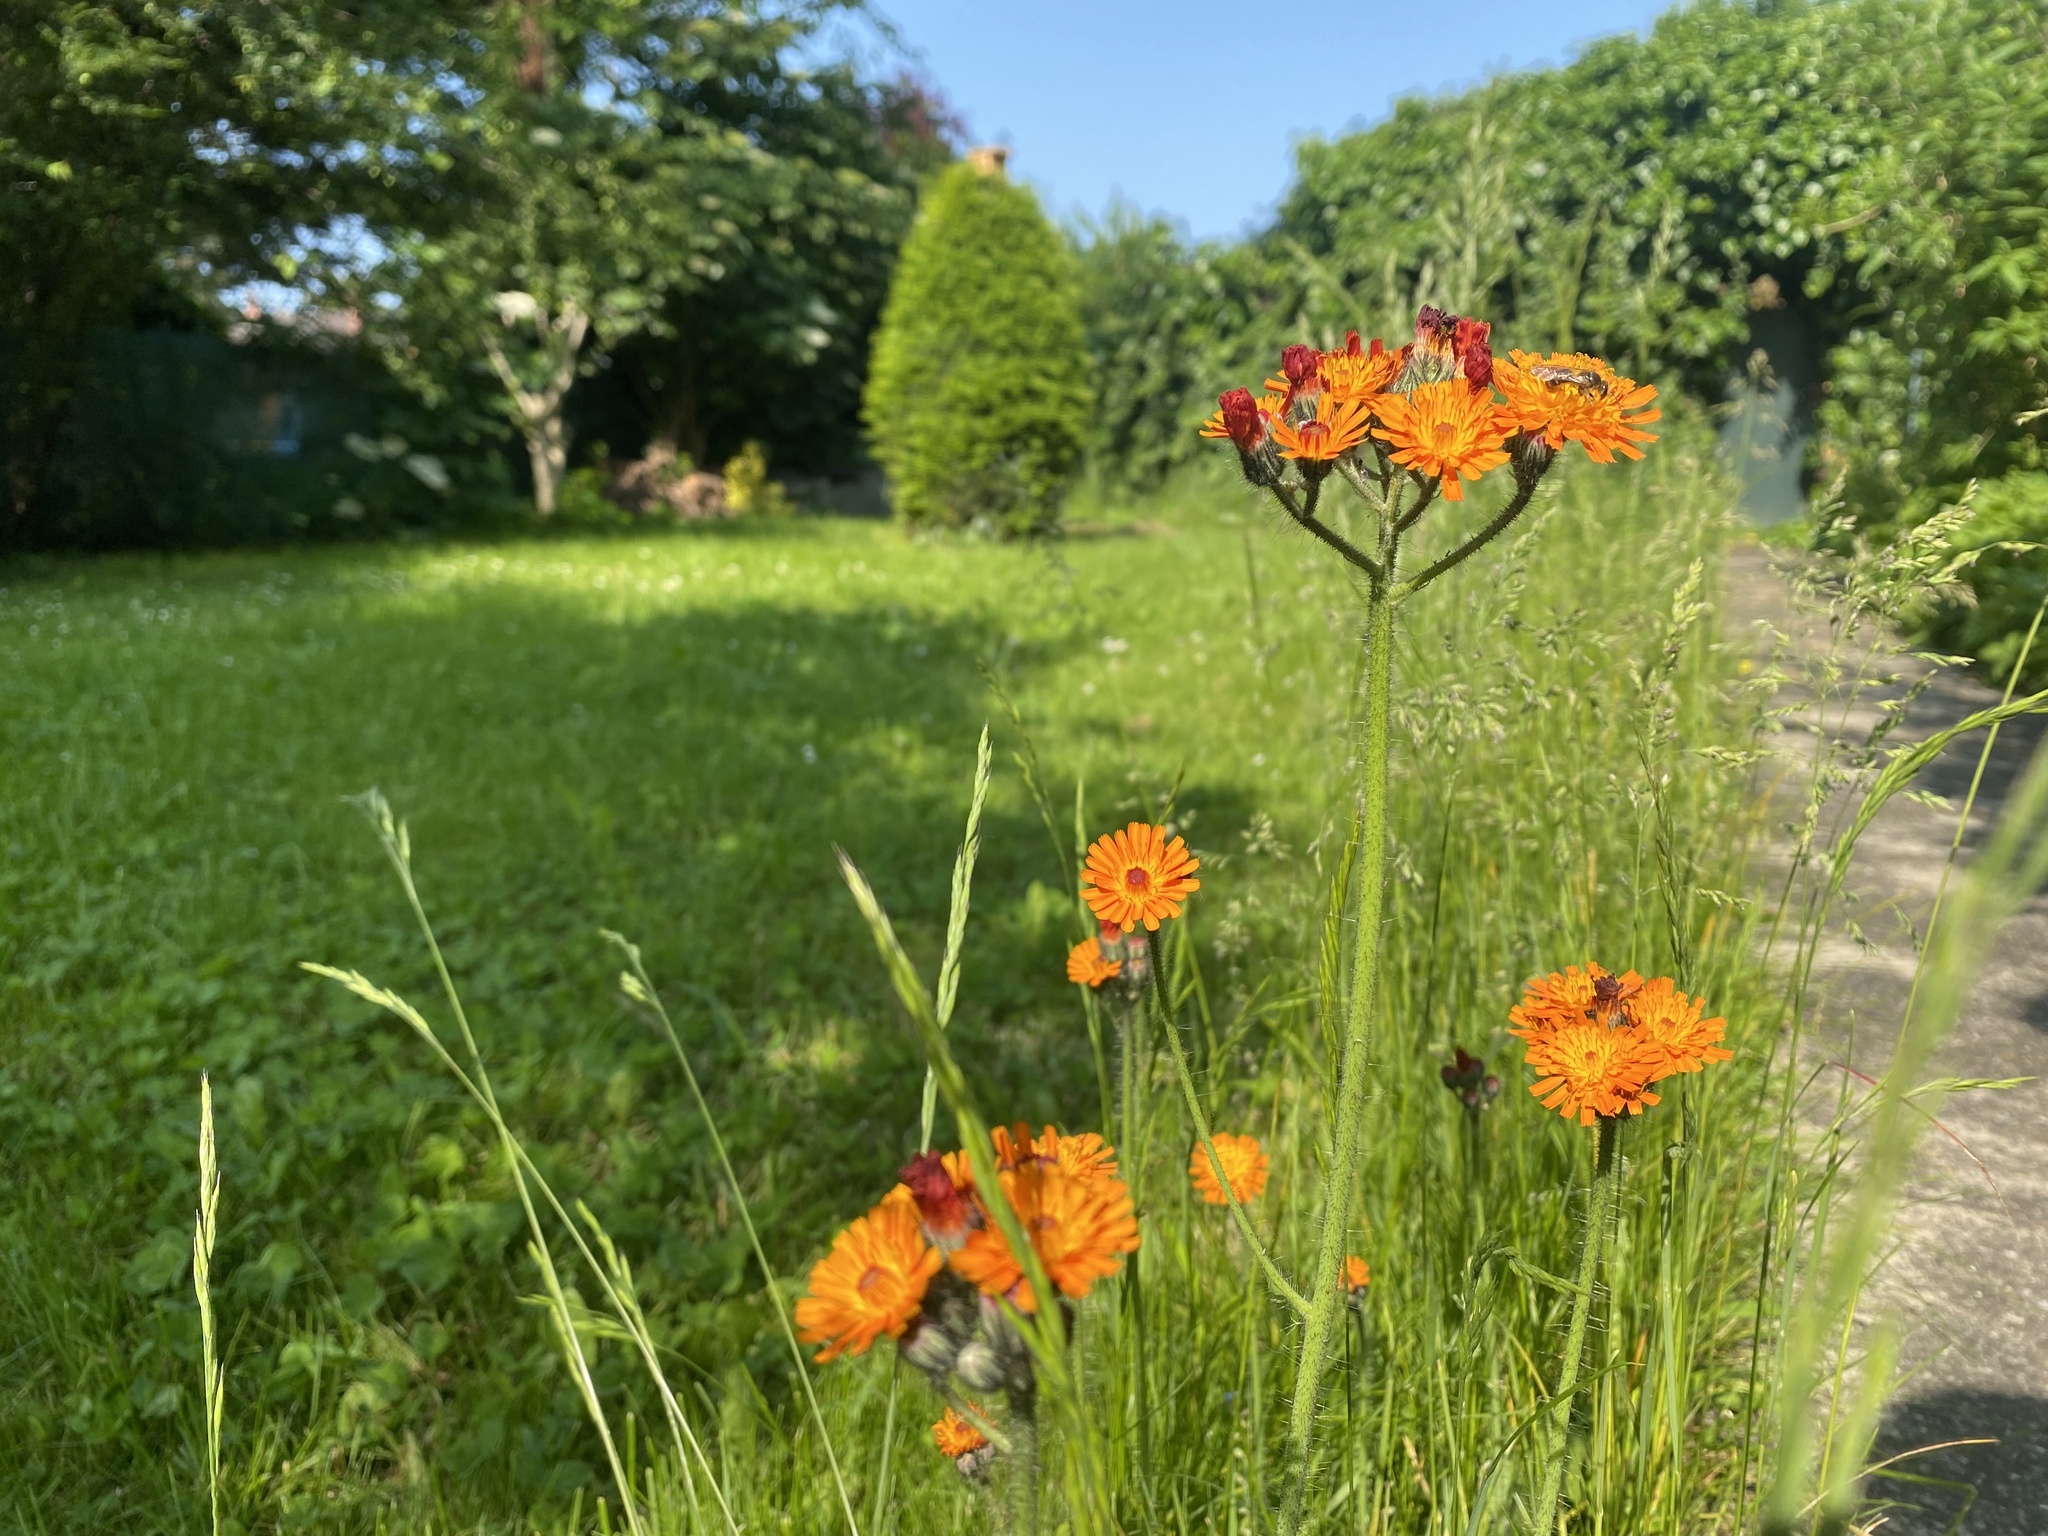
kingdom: Plantae
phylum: Tracheophyta
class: Magnoliopsida
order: Asterales
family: Asteraceae
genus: Pilosella
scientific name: Pilosella aurantiaca
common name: Fox-and-cubs
